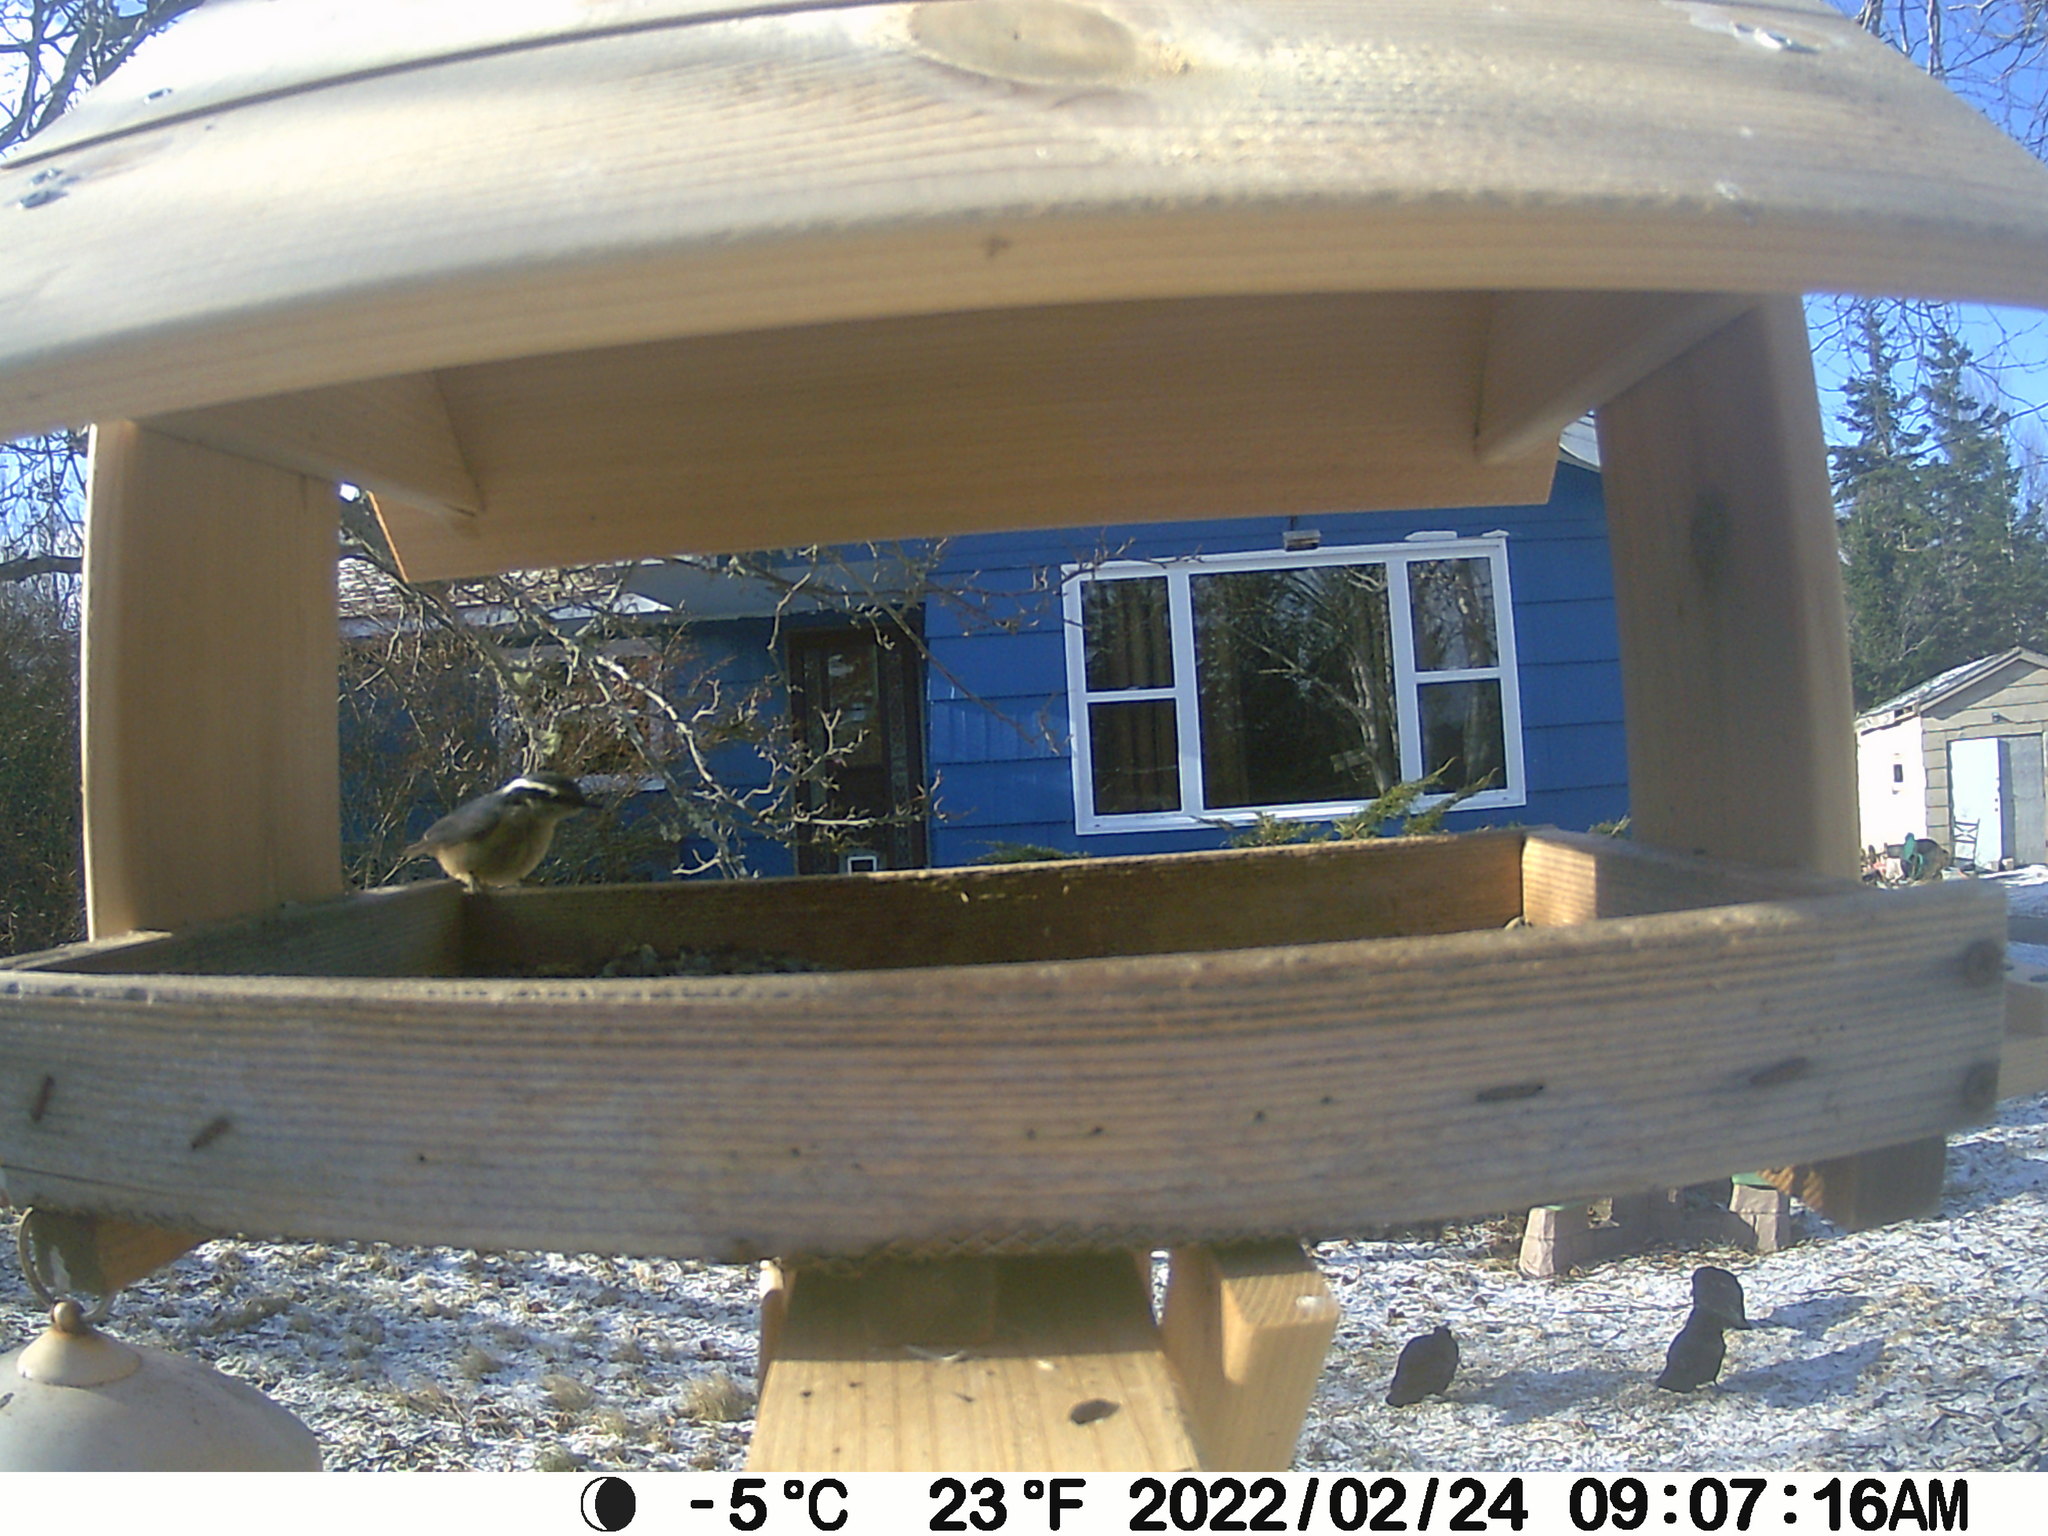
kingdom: Animalia
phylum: Chordata
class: Aves
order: Passeriformes
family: Sittidae
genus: Sitta
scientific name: Sitta canadensis
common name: Red-breasted nuthatch
